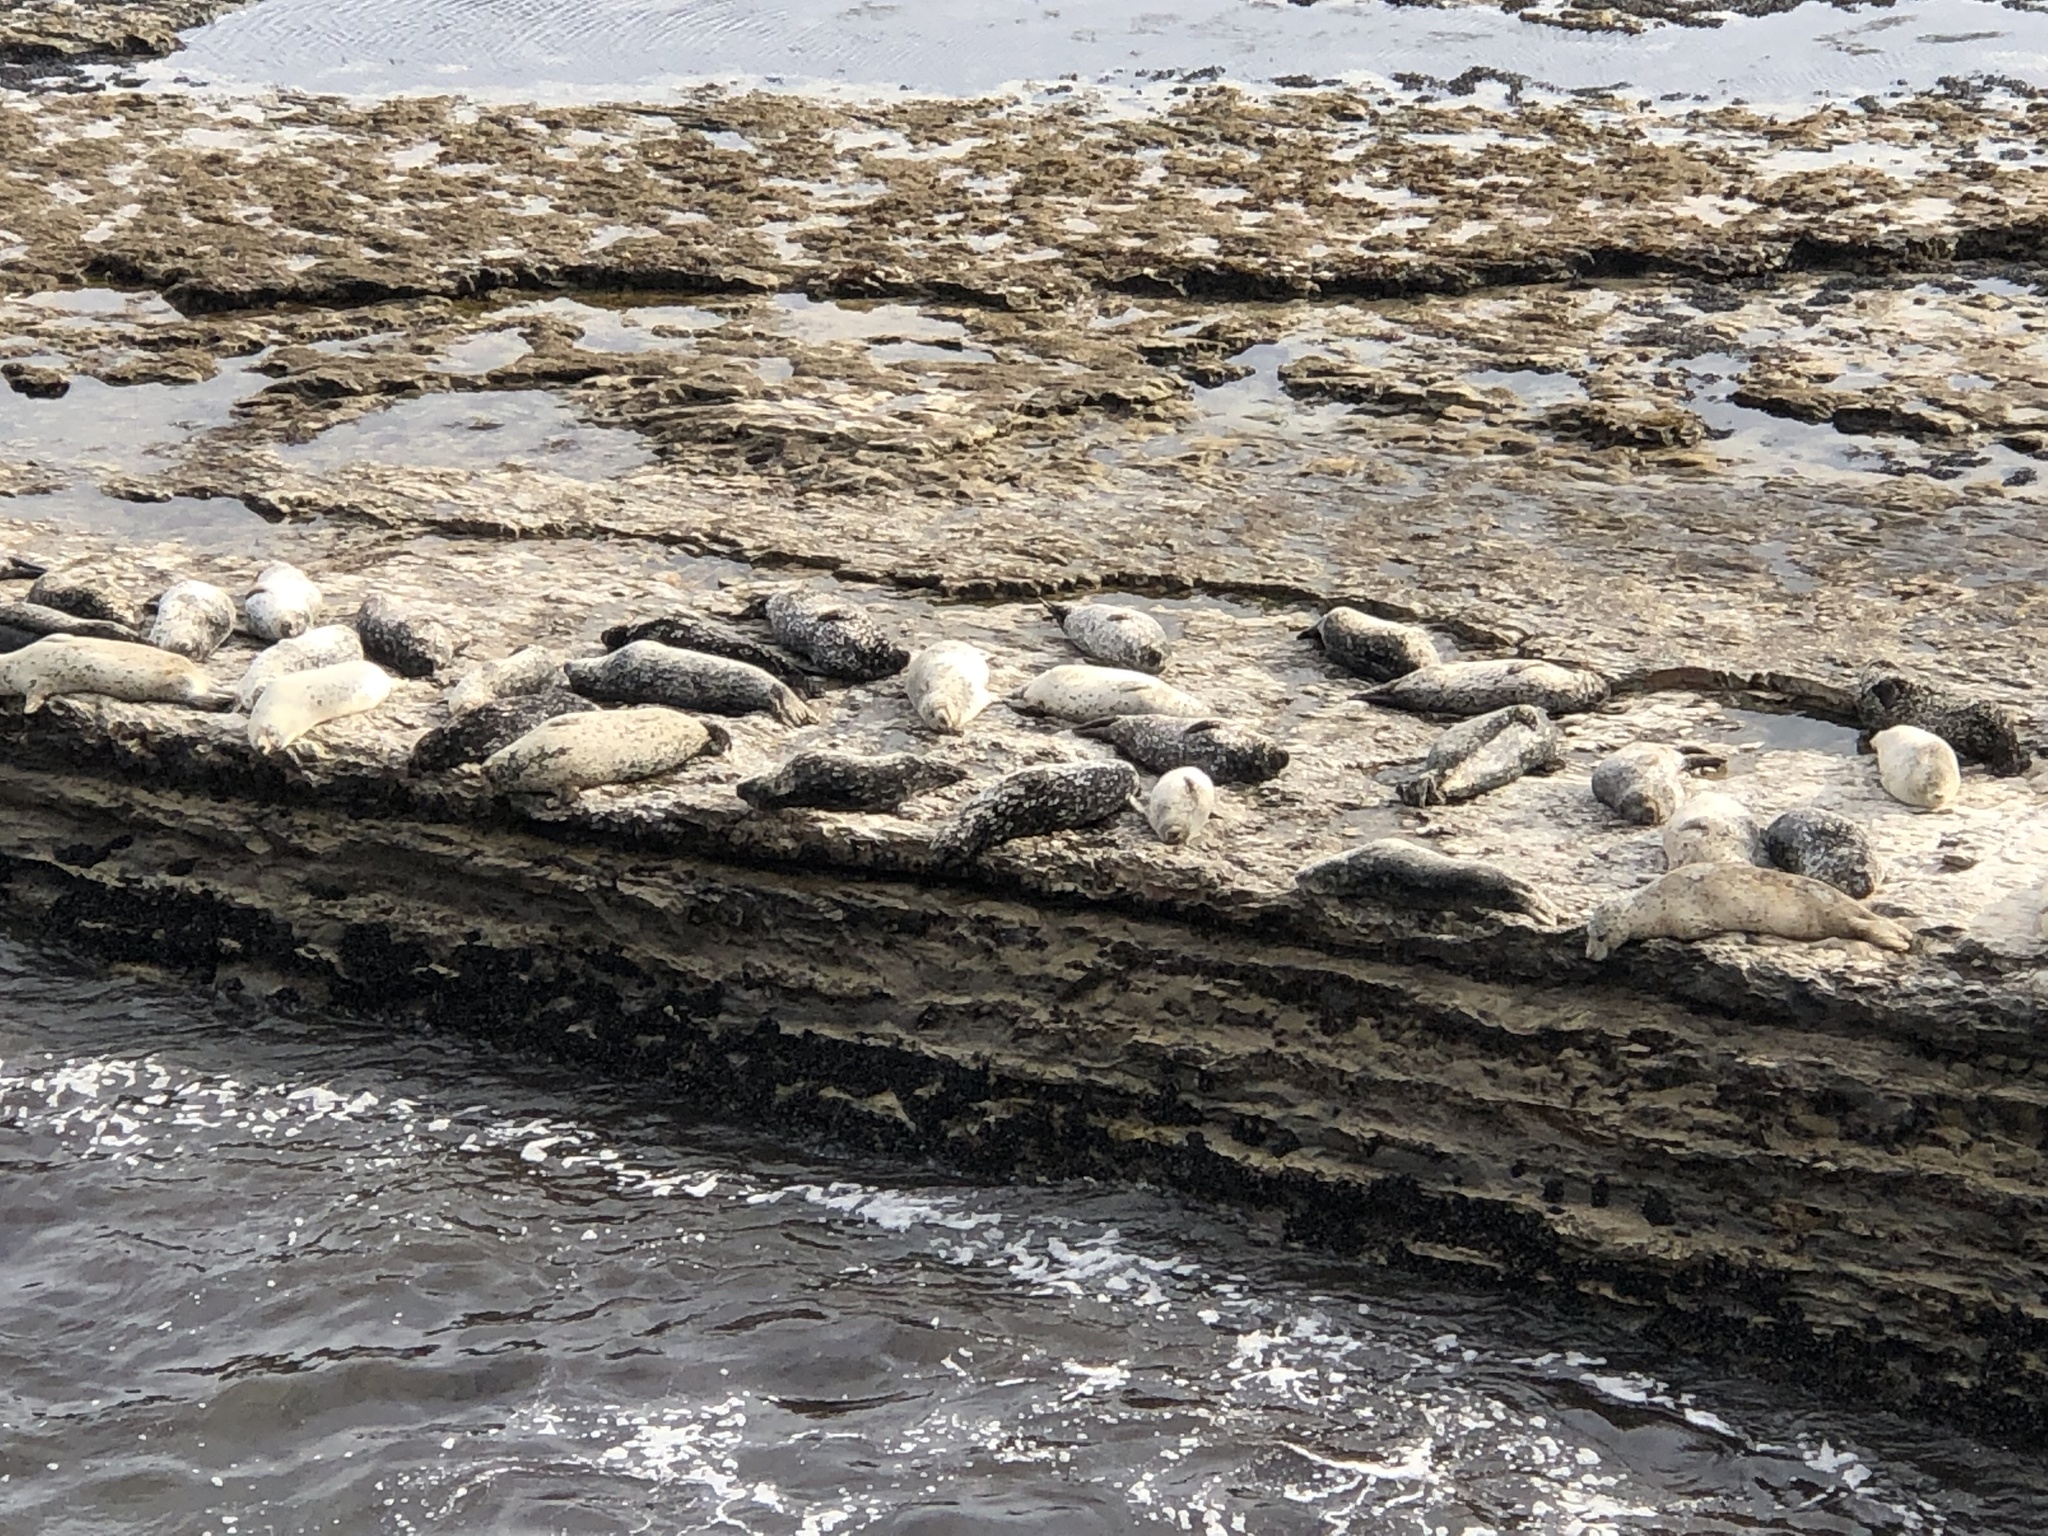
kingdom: Animalia
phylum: Chordata
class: Mammalia
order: Carnivora
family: Phocidae
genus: Phoca
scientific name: Phoca vitulina
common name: Harbor seal
